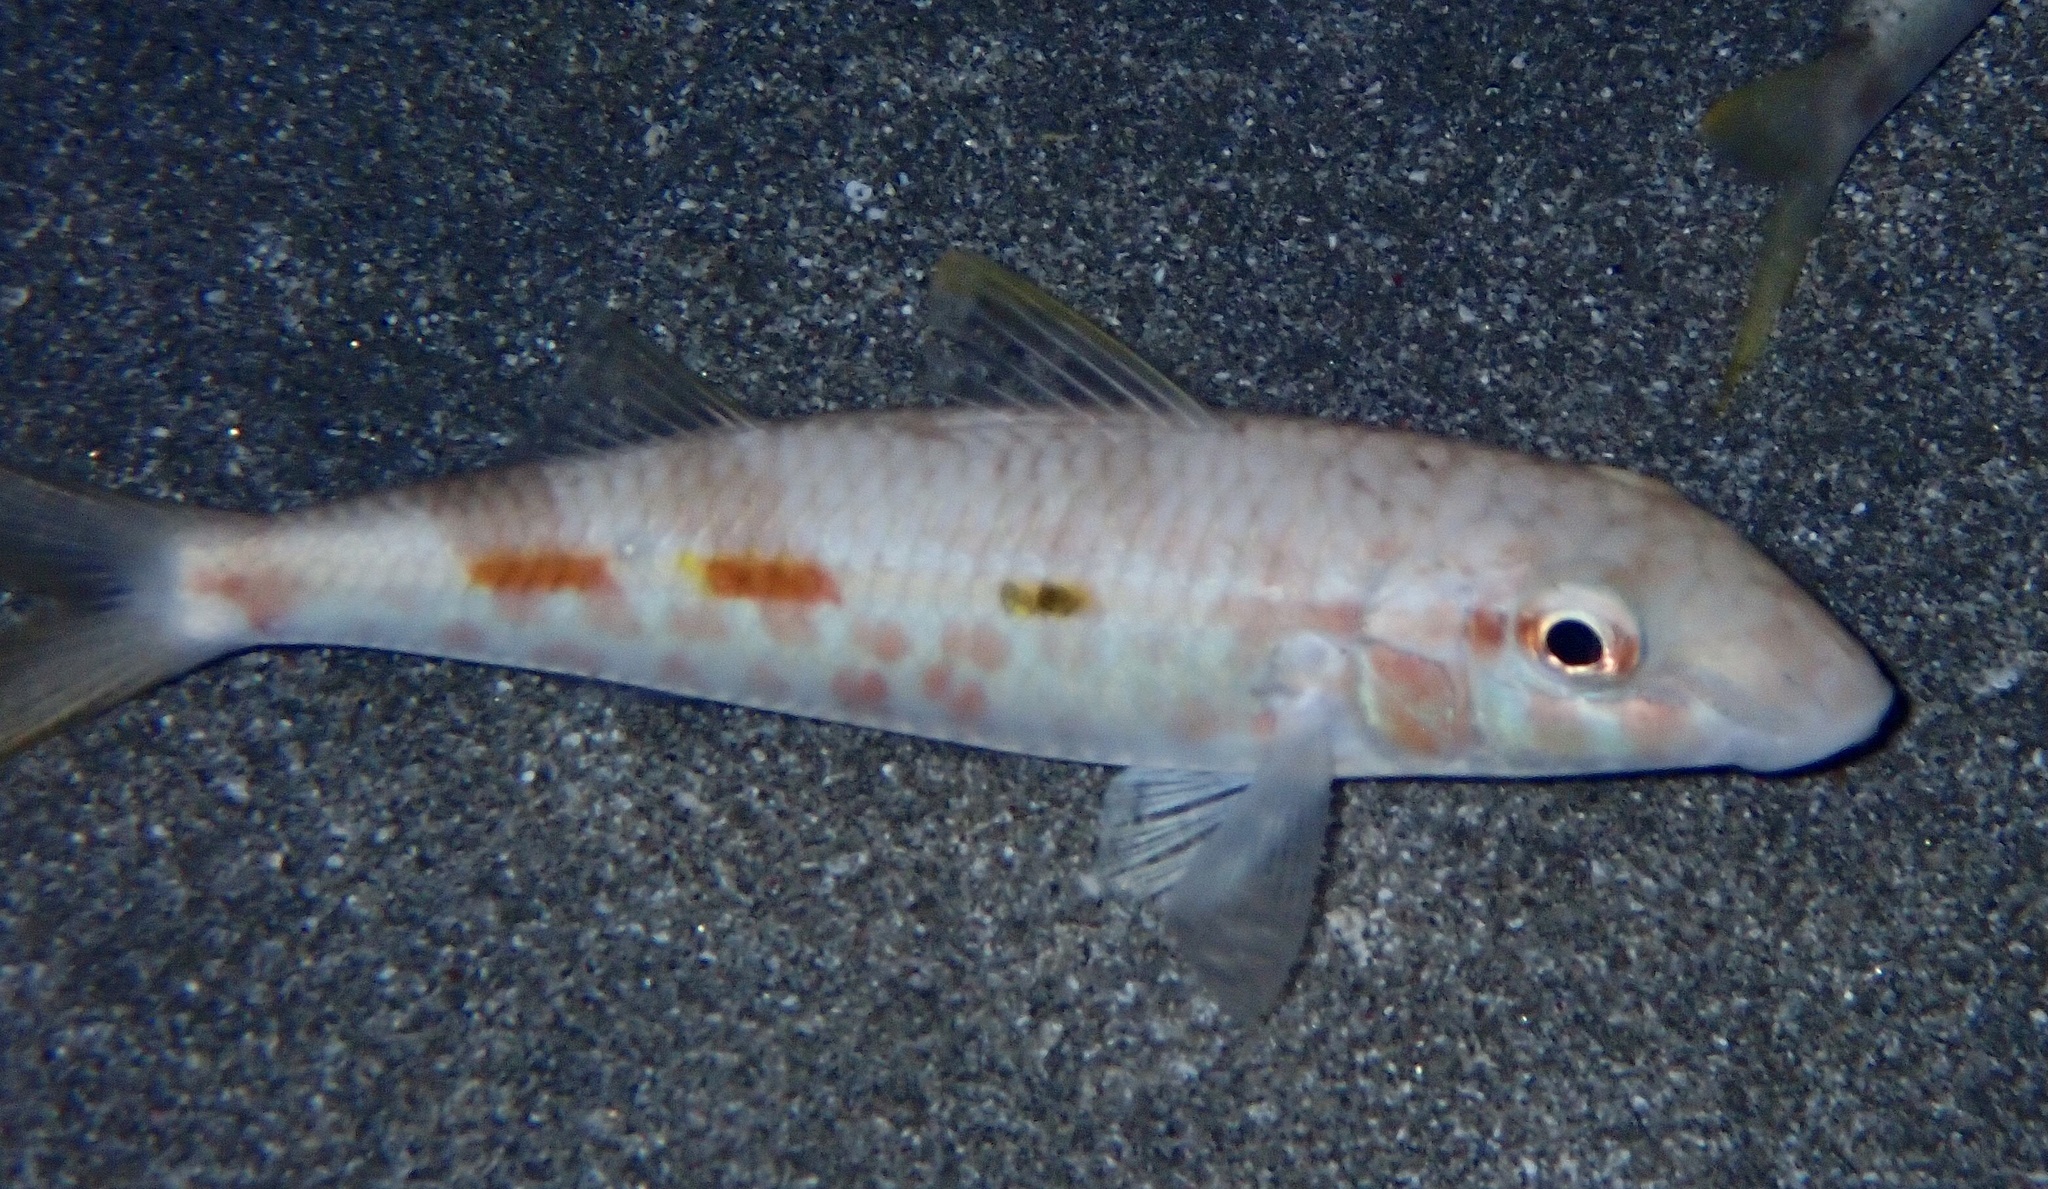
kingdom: Animalia
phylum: Chordata
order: Perciformes
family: Mullidae
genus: Mulloidichthys
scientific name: Mulloidichthys flavolineatus
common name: Yellowstripe goatfish
